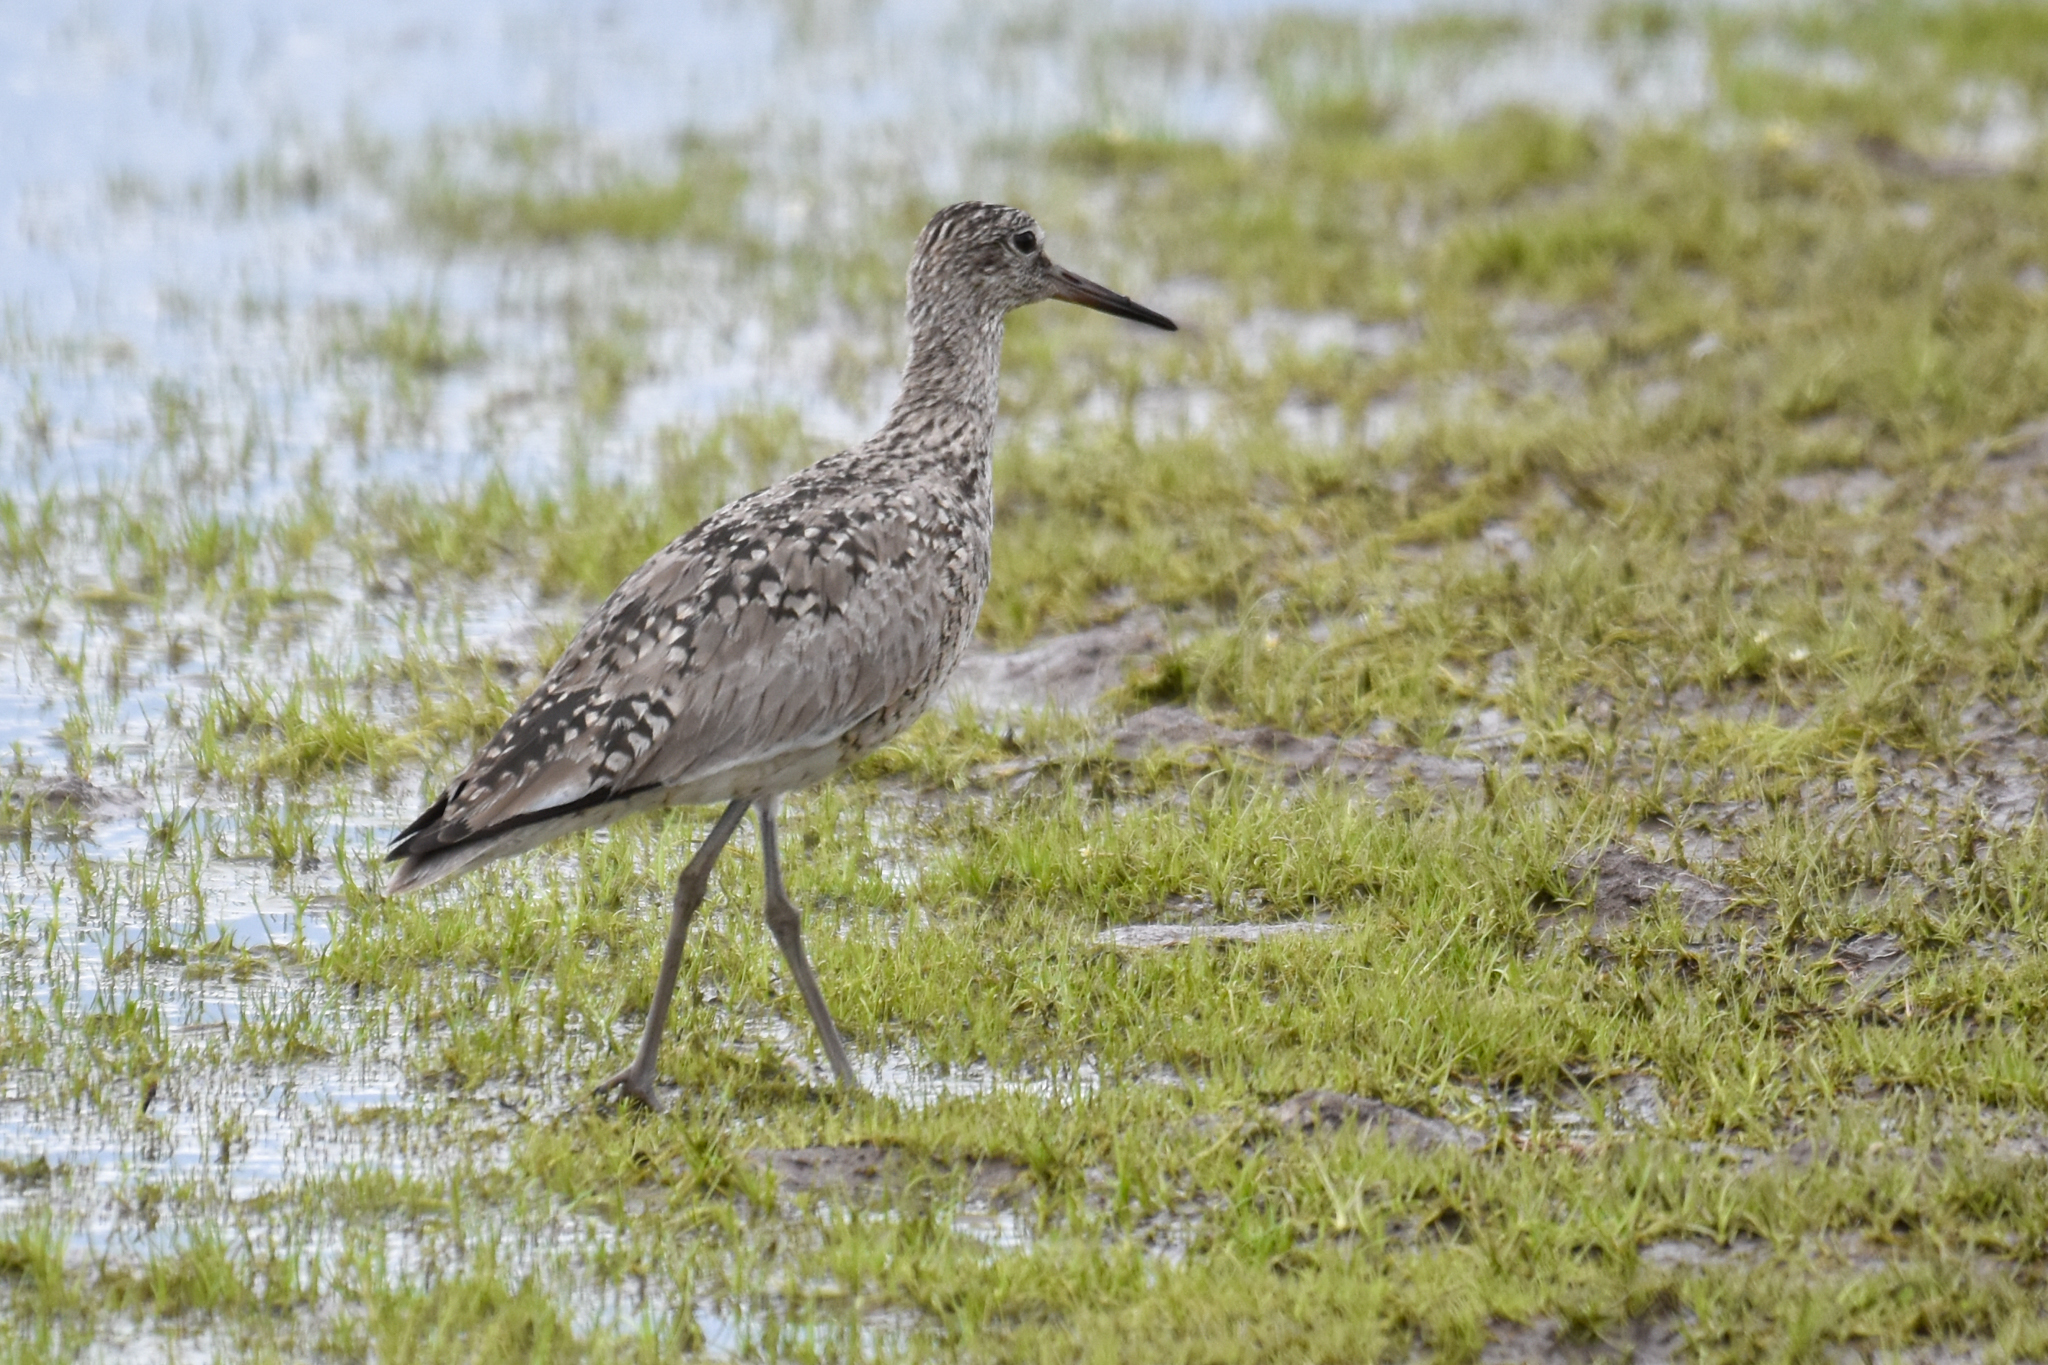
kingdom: Animalia
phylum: Chordata
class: Aves
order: Charadriiformes
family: Scolopacidae
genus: Tringa
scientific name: Tringa semipalmata
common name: Willet
